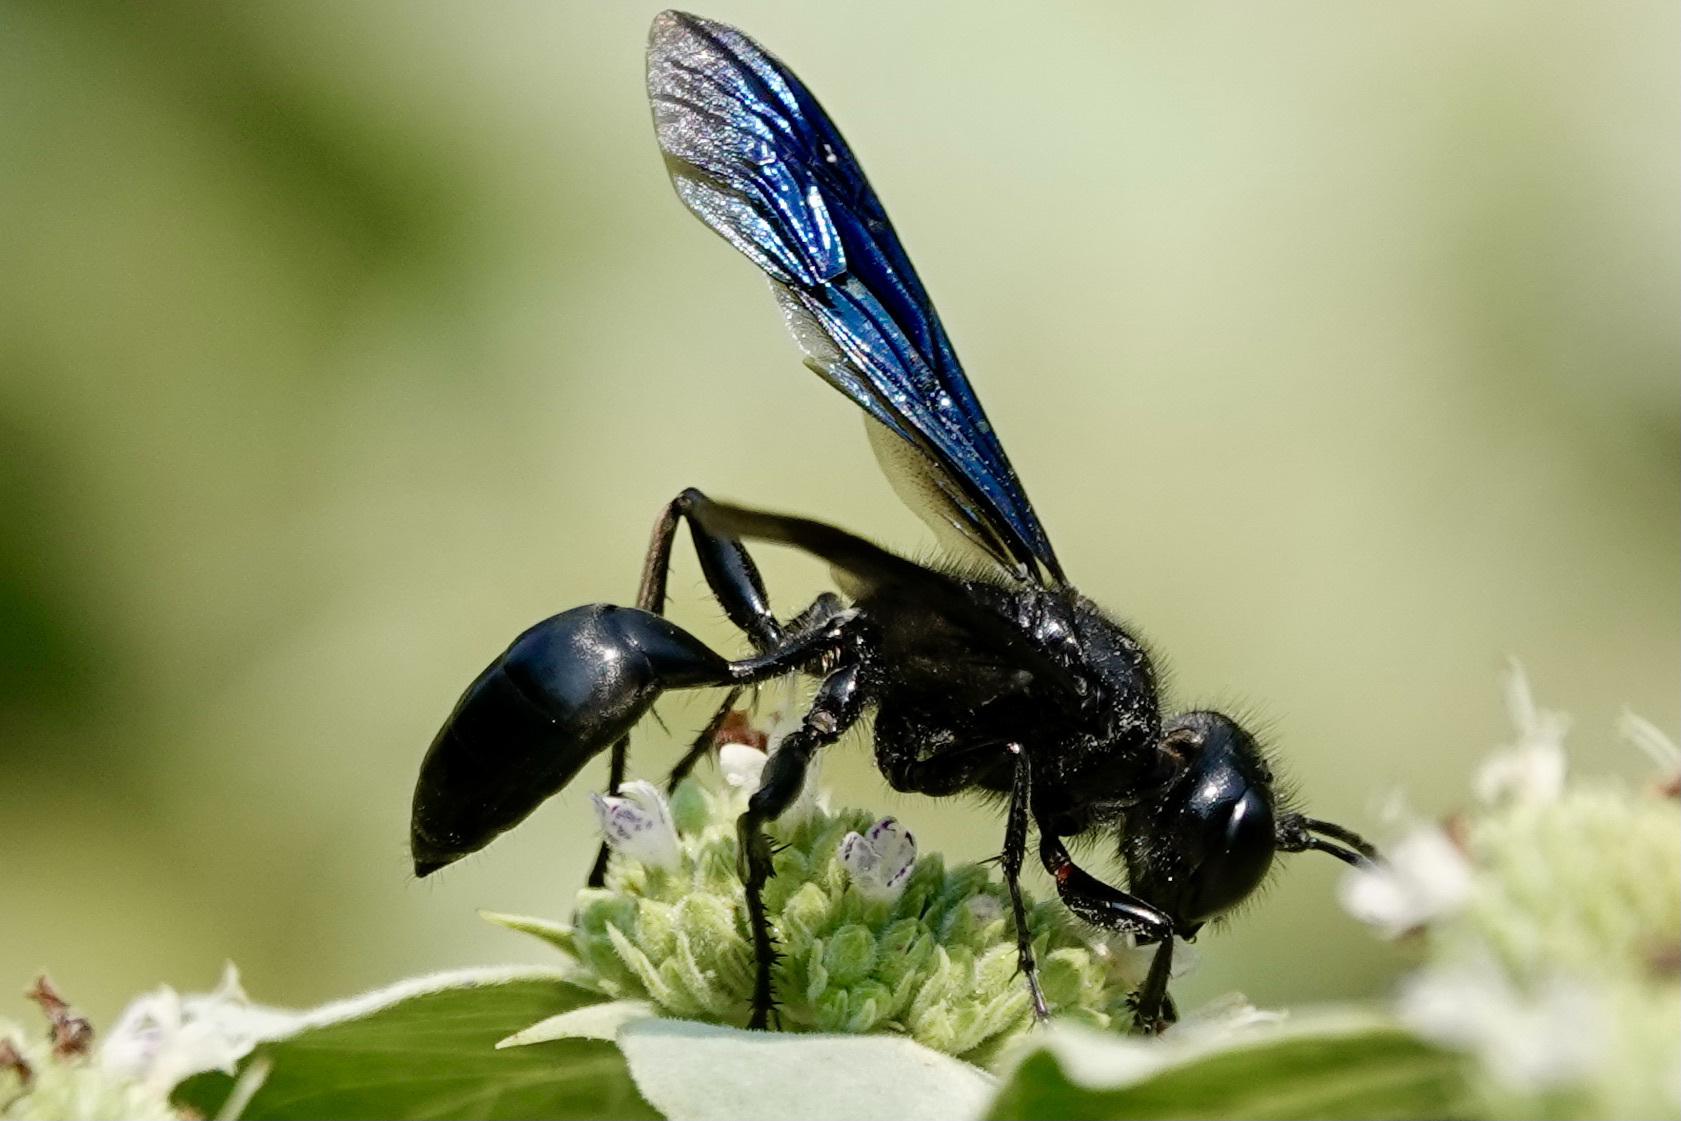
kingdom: Animalia
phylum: Arthropoda
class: Insecta
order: Hymenoptera
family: Sphecidae
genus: Isodontia
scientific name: Isodontia philadelphica
